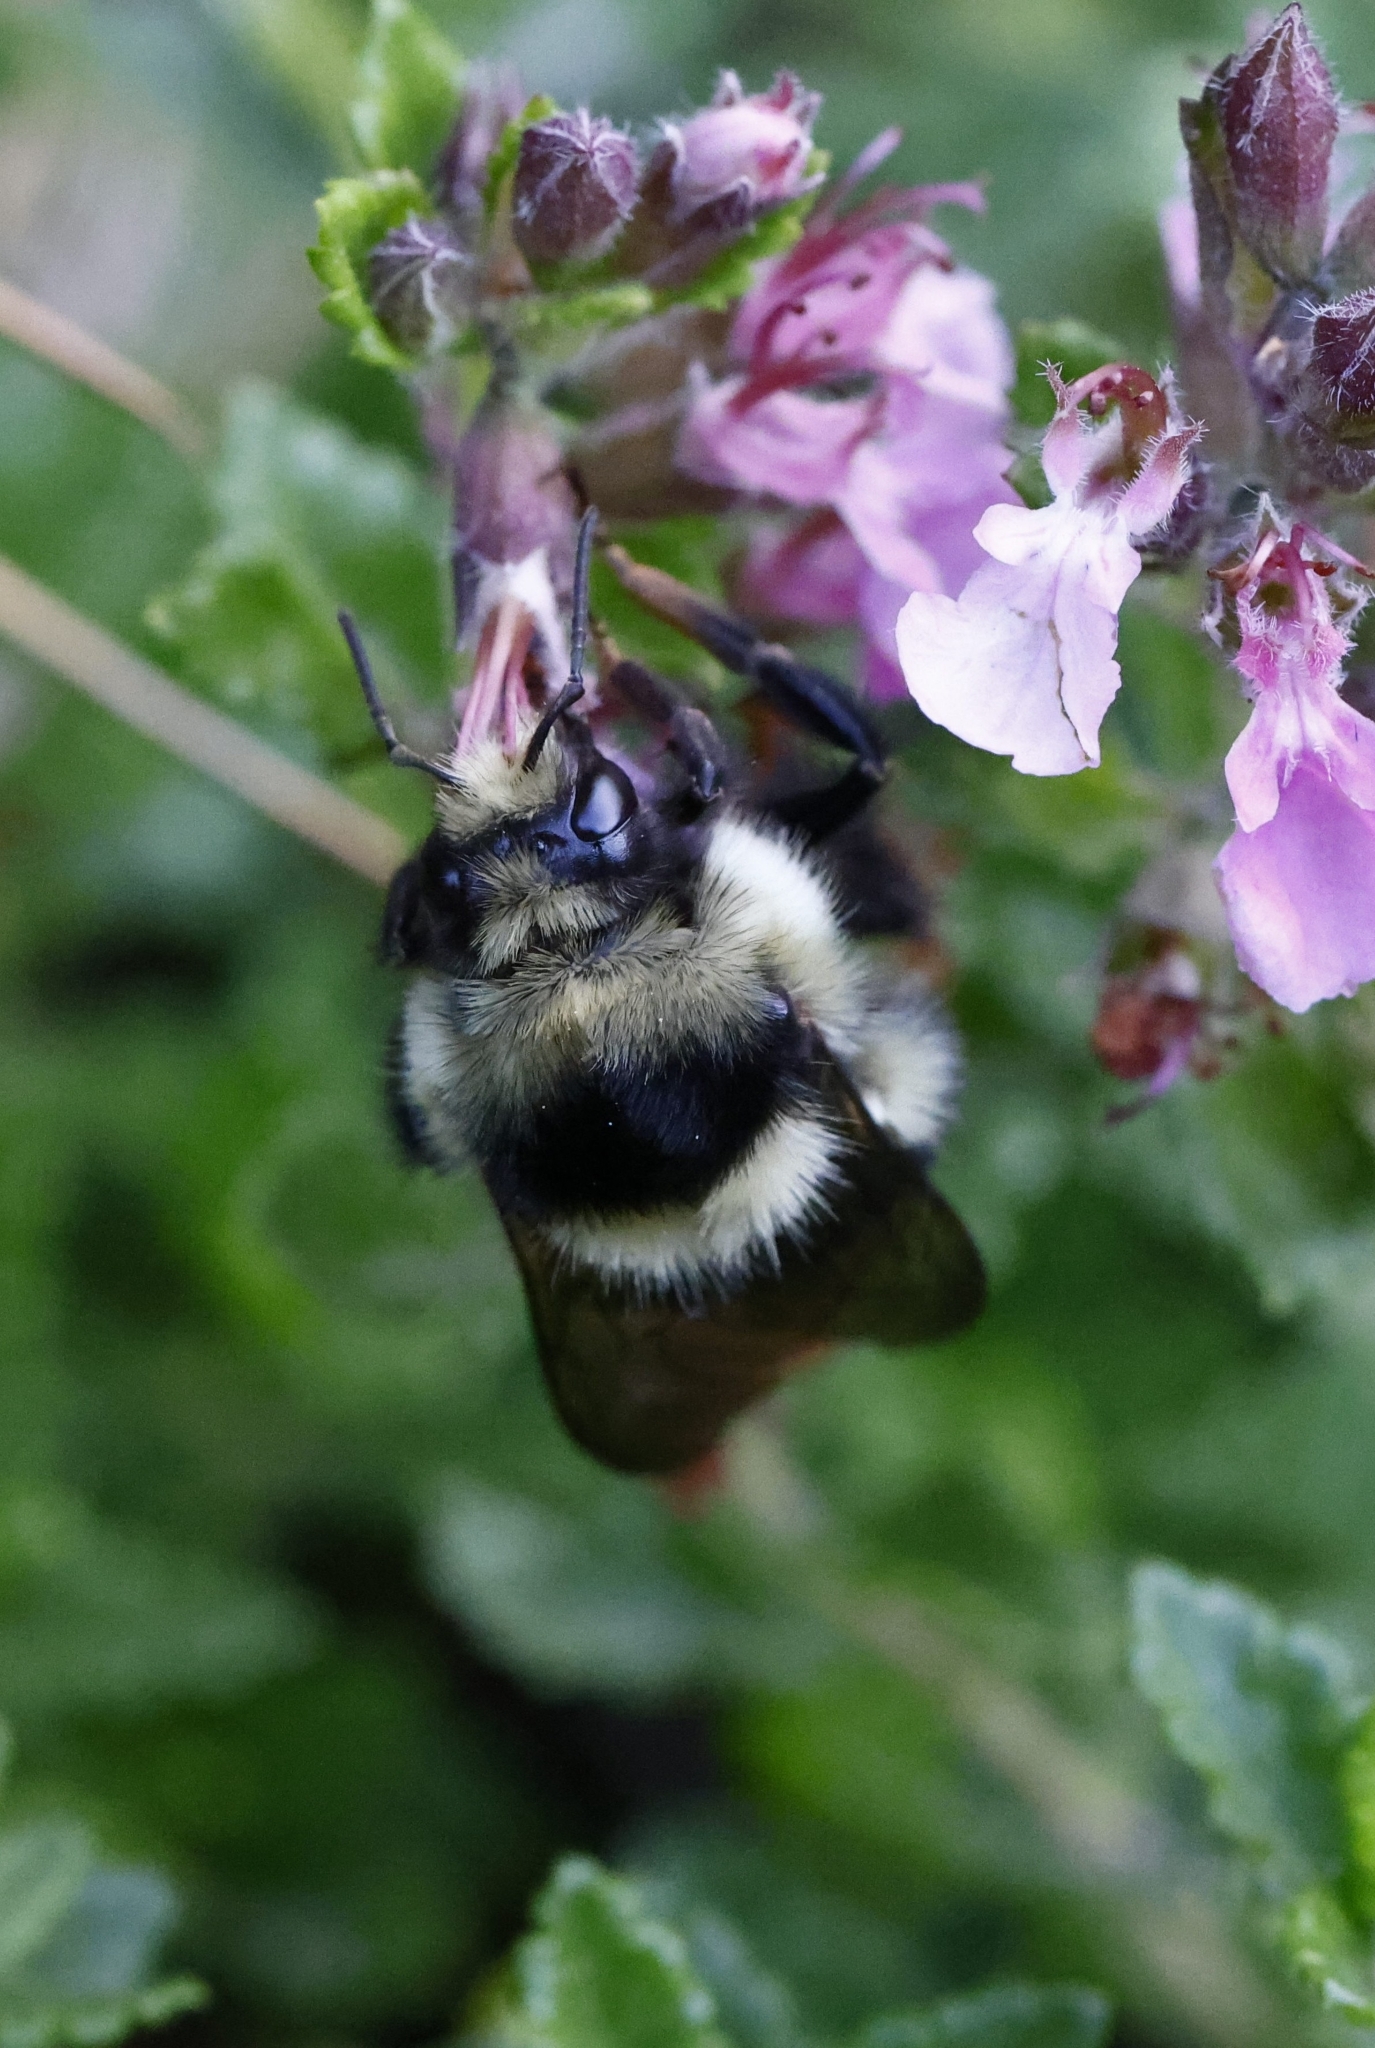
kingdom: Animalia
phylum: Arthropoda
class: Insecta
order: Hymenoptera
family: Apidae
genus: Bombus
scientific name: Bombus melanopygus
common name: Black tail bumble bee
